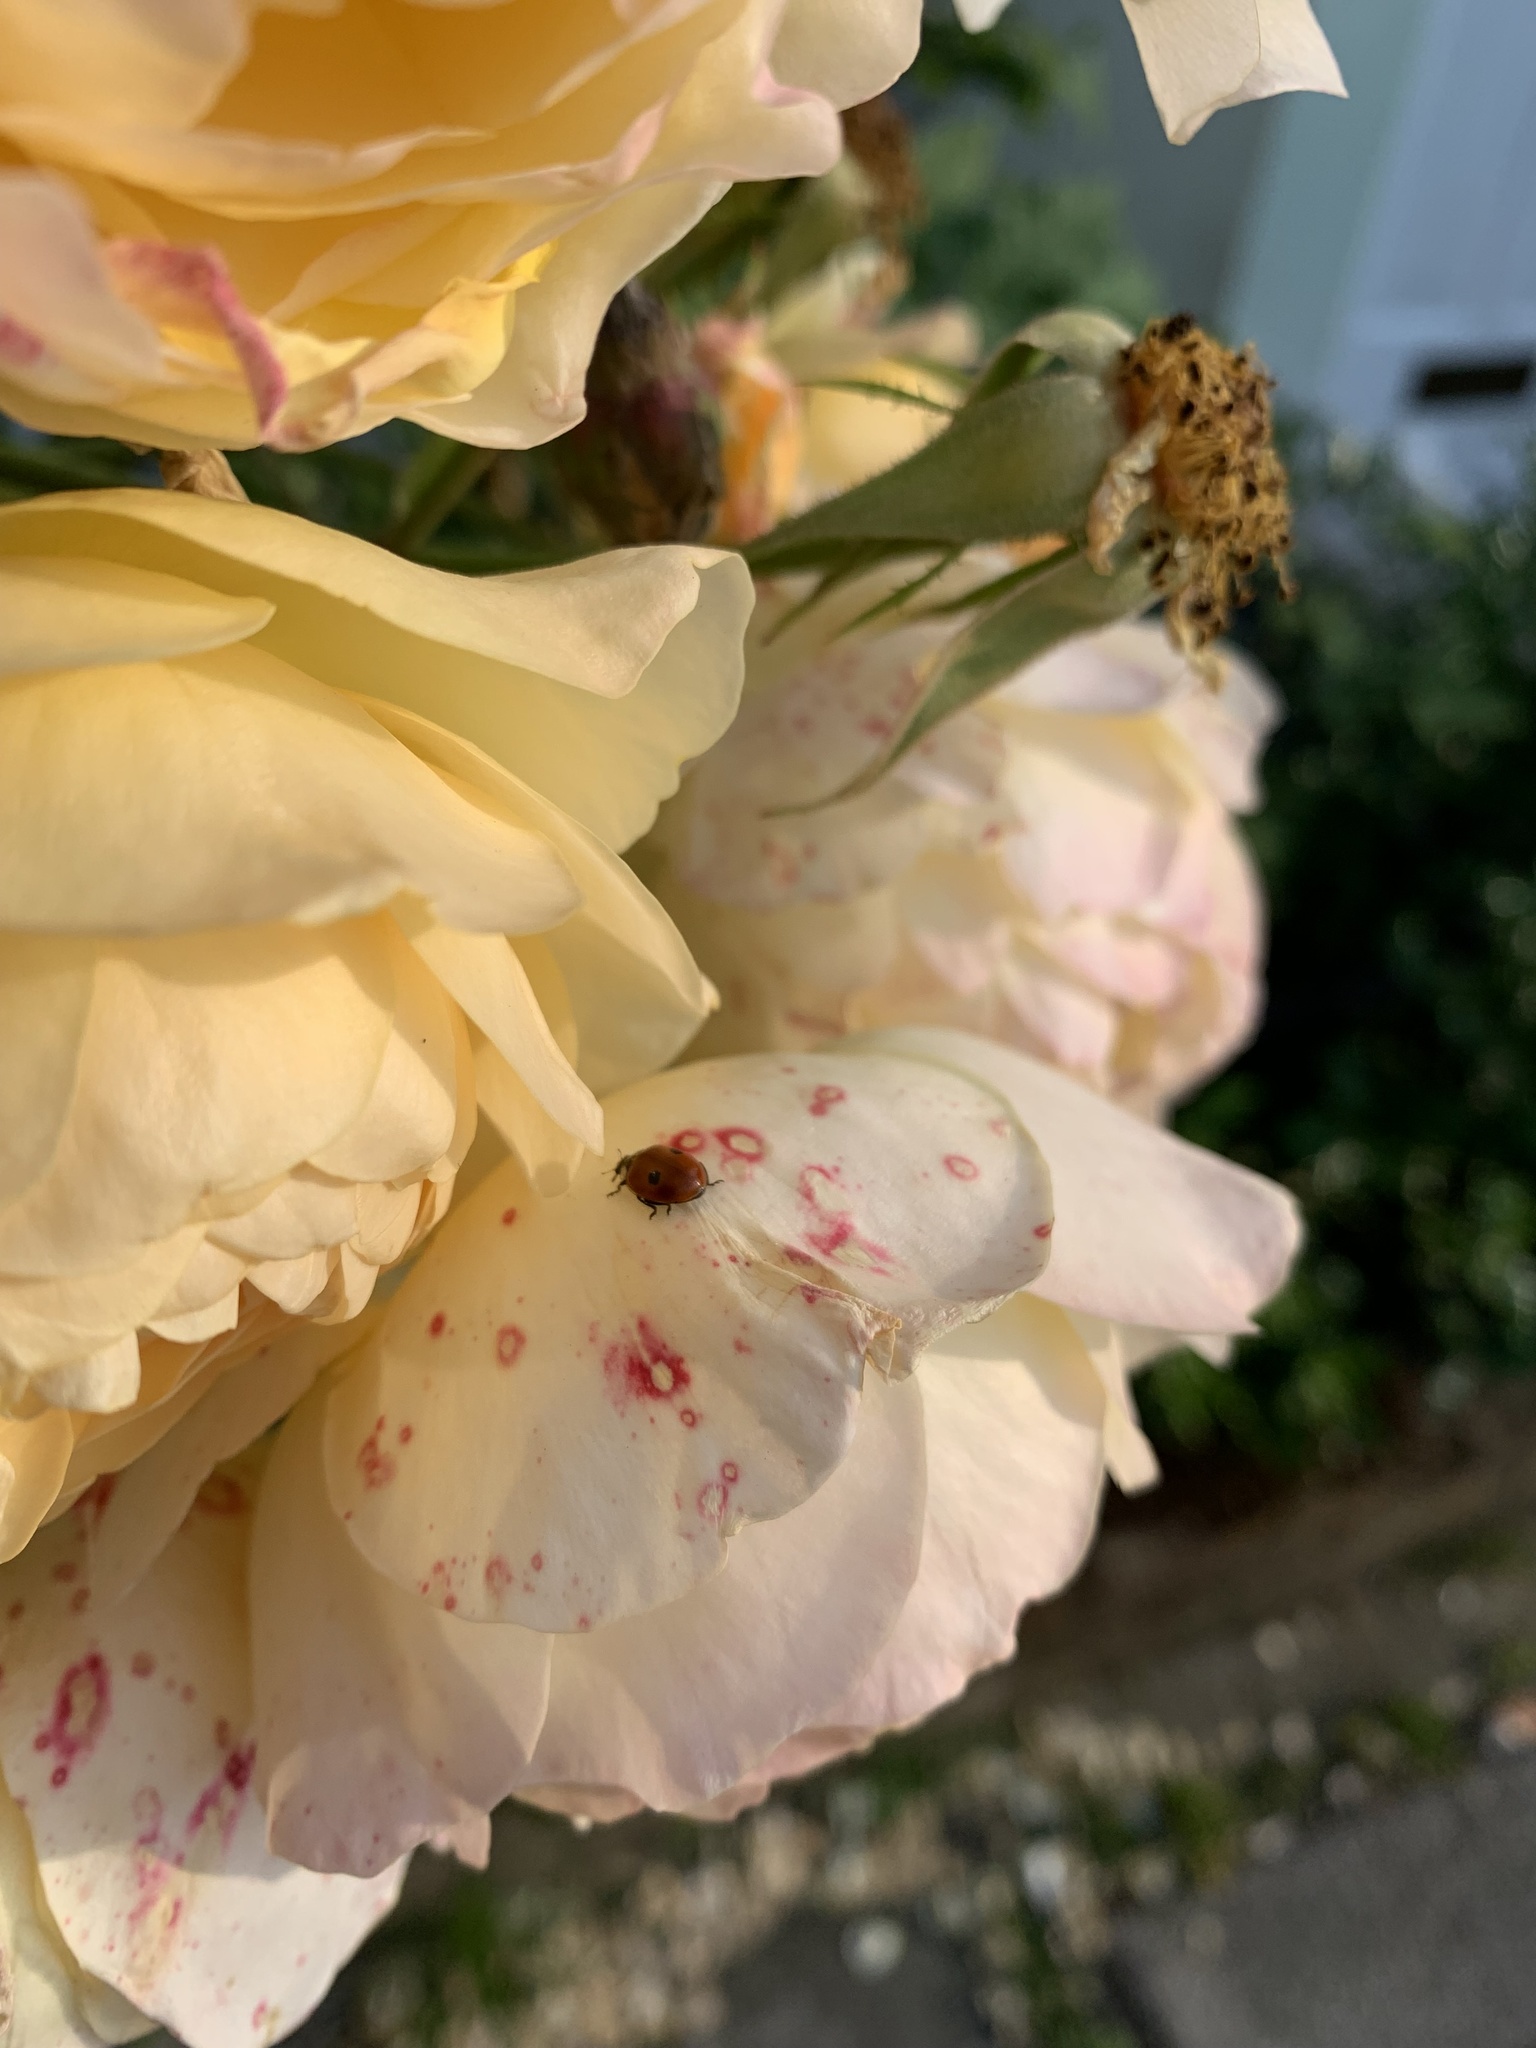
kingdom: Animalia
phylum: Arthropoda
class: Insecta
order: Coleoptera
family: Coccinellidae
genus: Adalia
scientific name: Adalia bipunctata
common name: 2-spot ladybird
